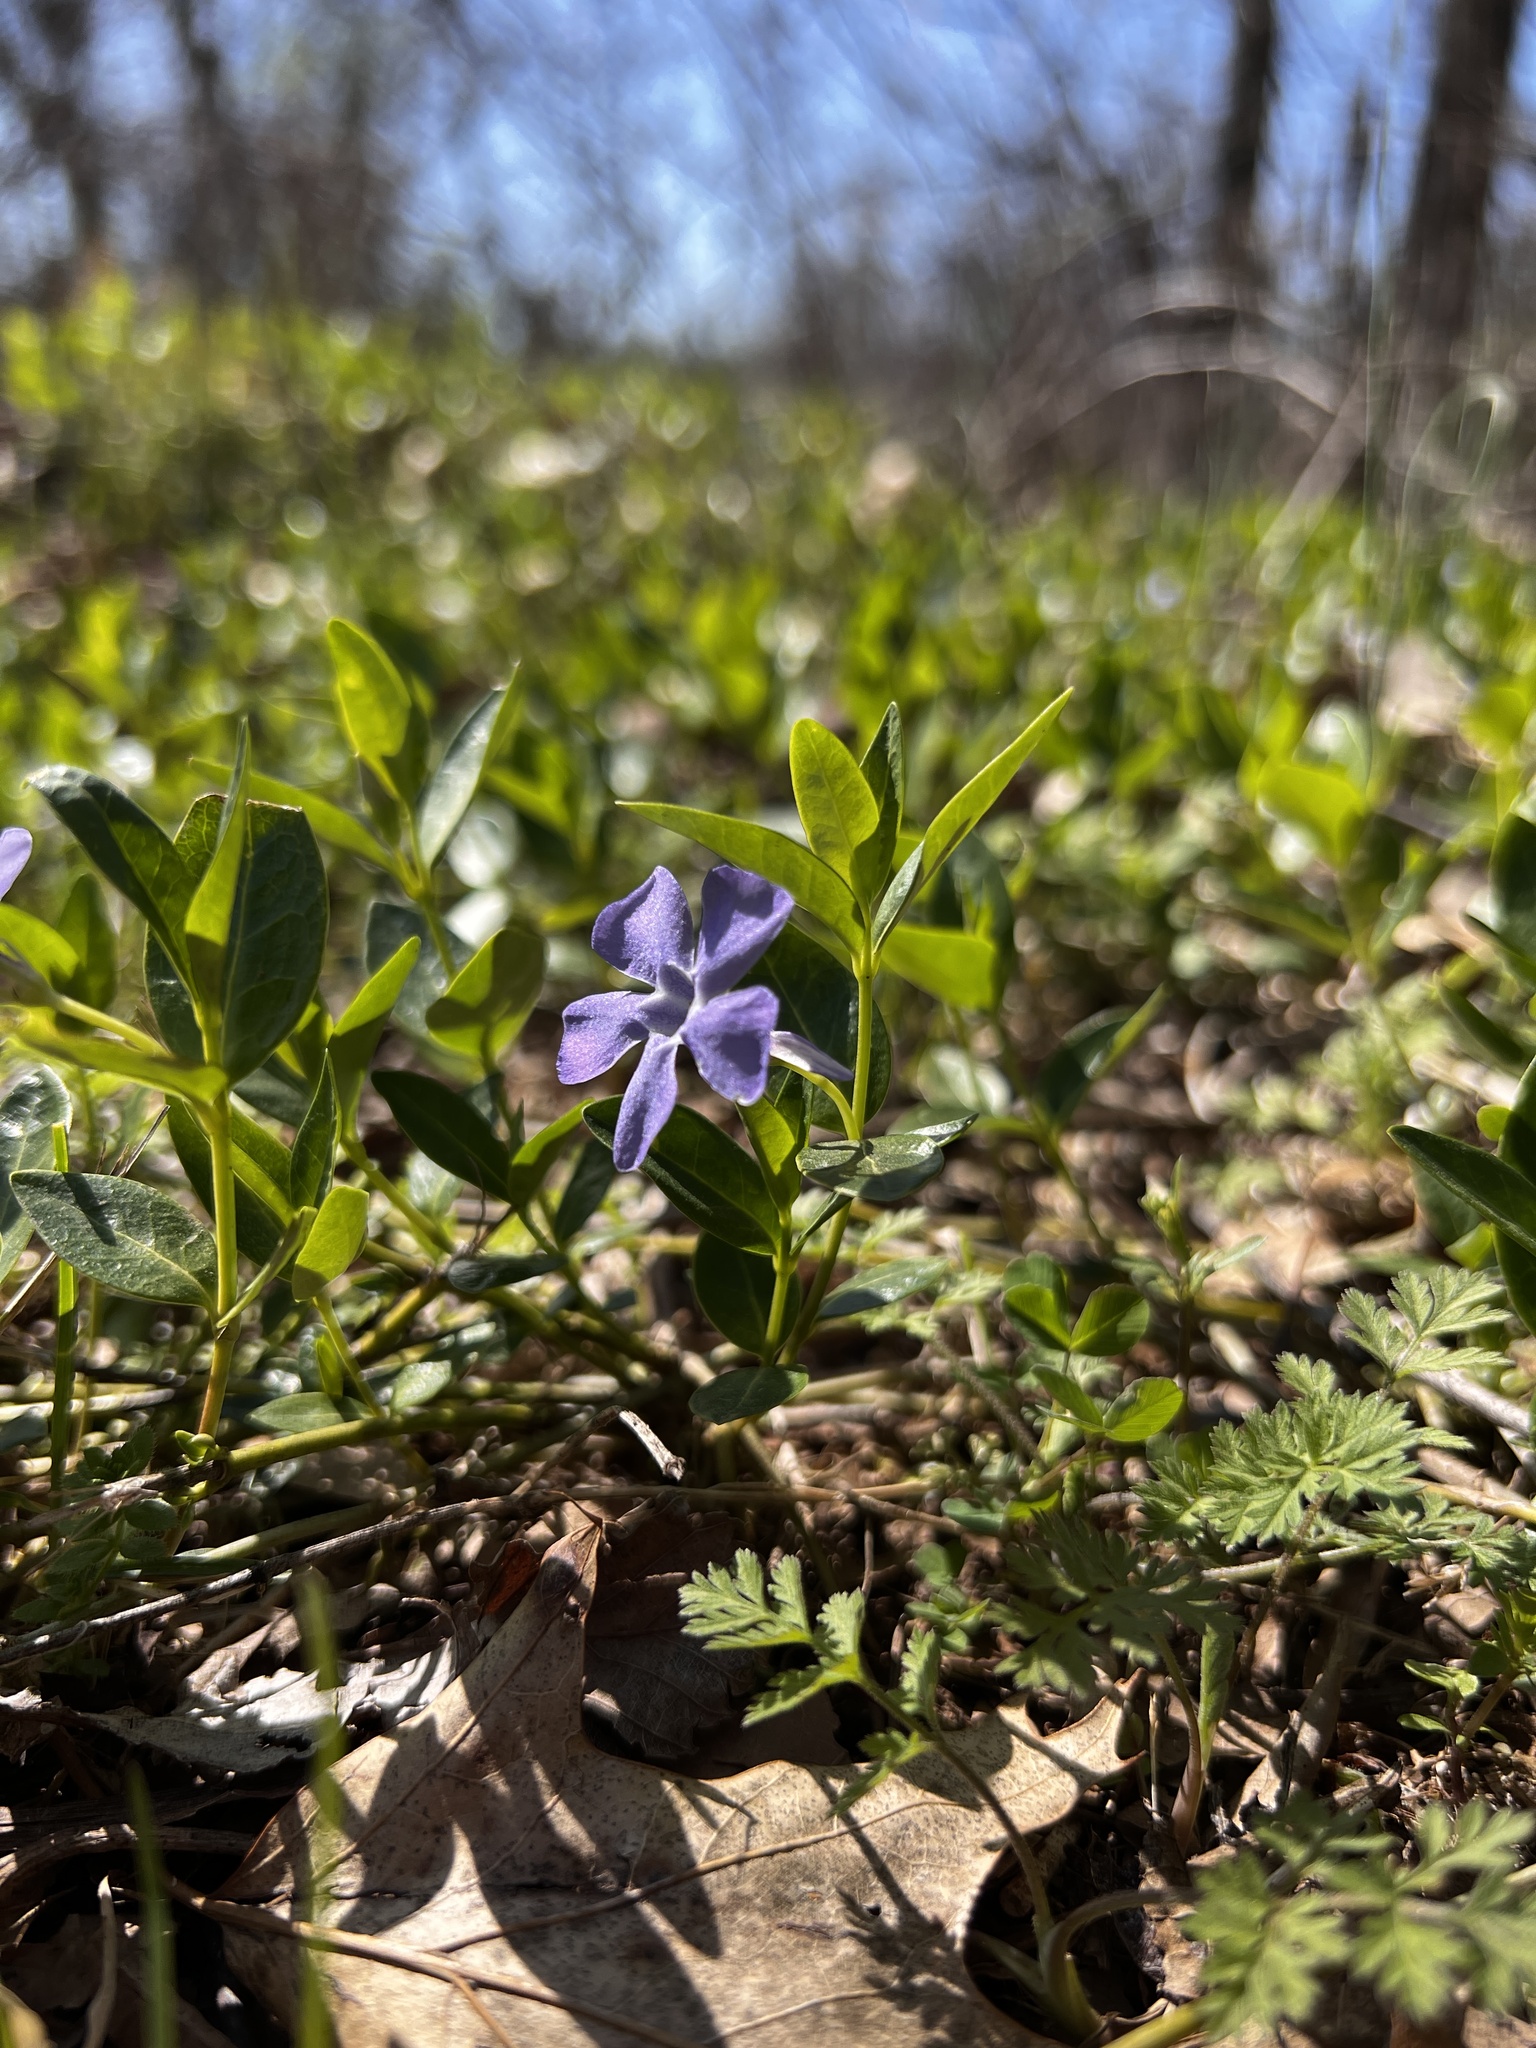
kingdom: Plantae
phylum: Tracheophyta
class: Magnoliopsida
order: Gentianales
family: Apocynaceae
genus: Vinca
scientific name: Vinca minor
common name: Lesser periwinkle
